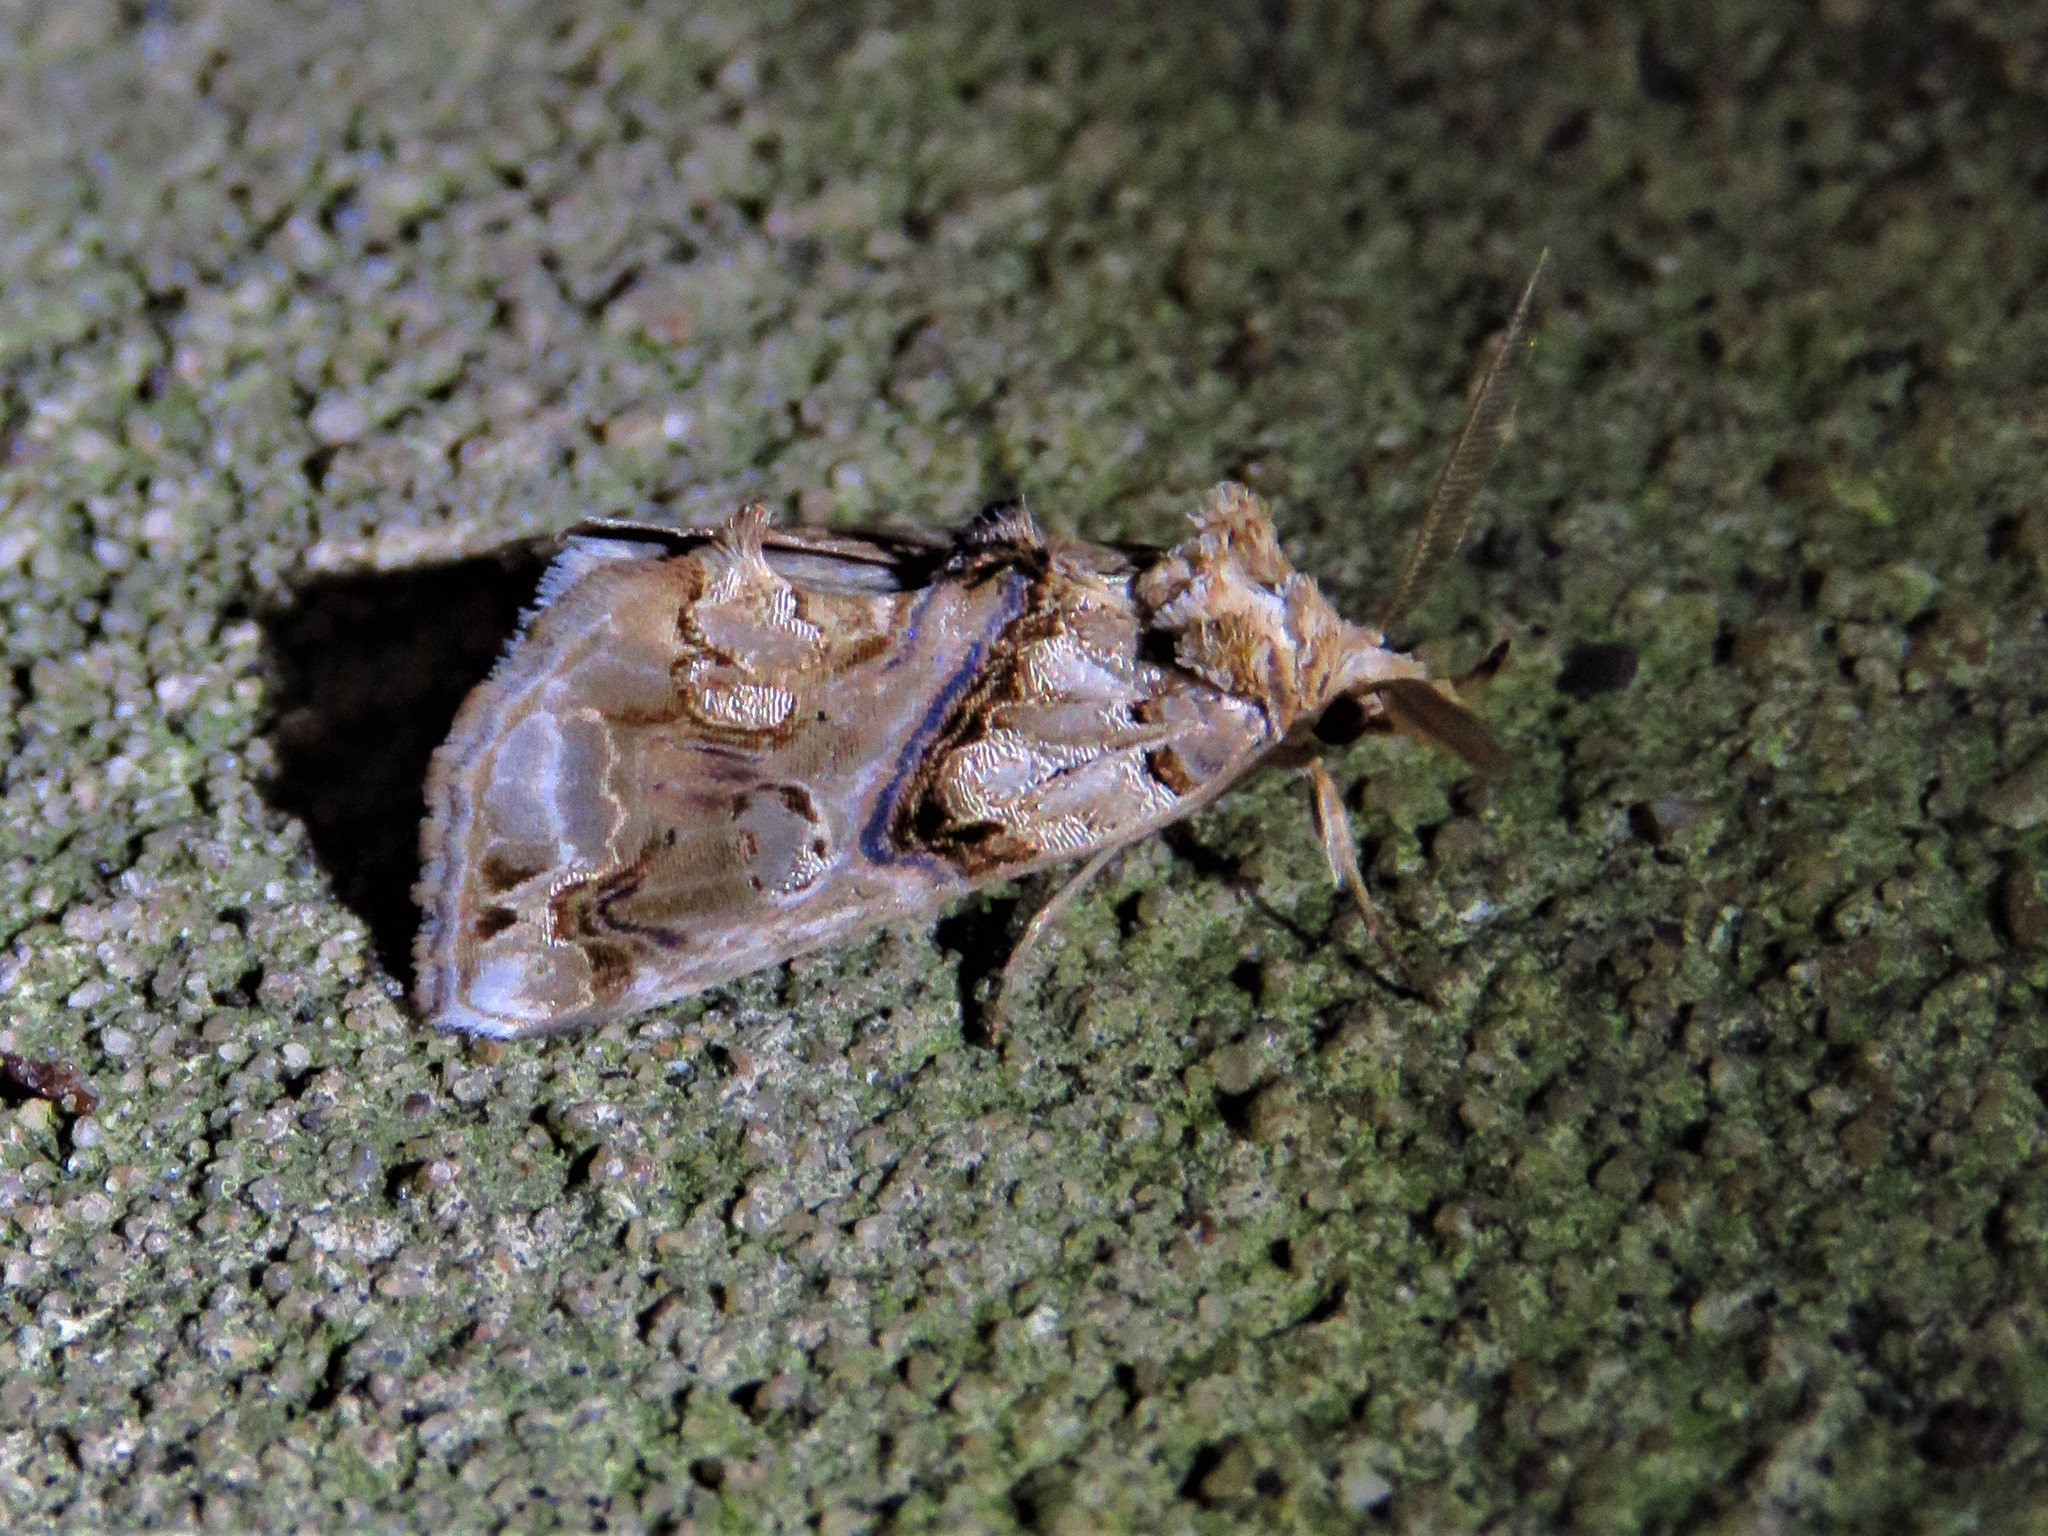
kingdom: Animalia
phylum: Arthropoda
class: Insecta
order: Lepidoptera
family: Erebidae
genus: Plusiodonta
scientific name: Plusiodonta compressipalpis
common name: Moonseed moth
